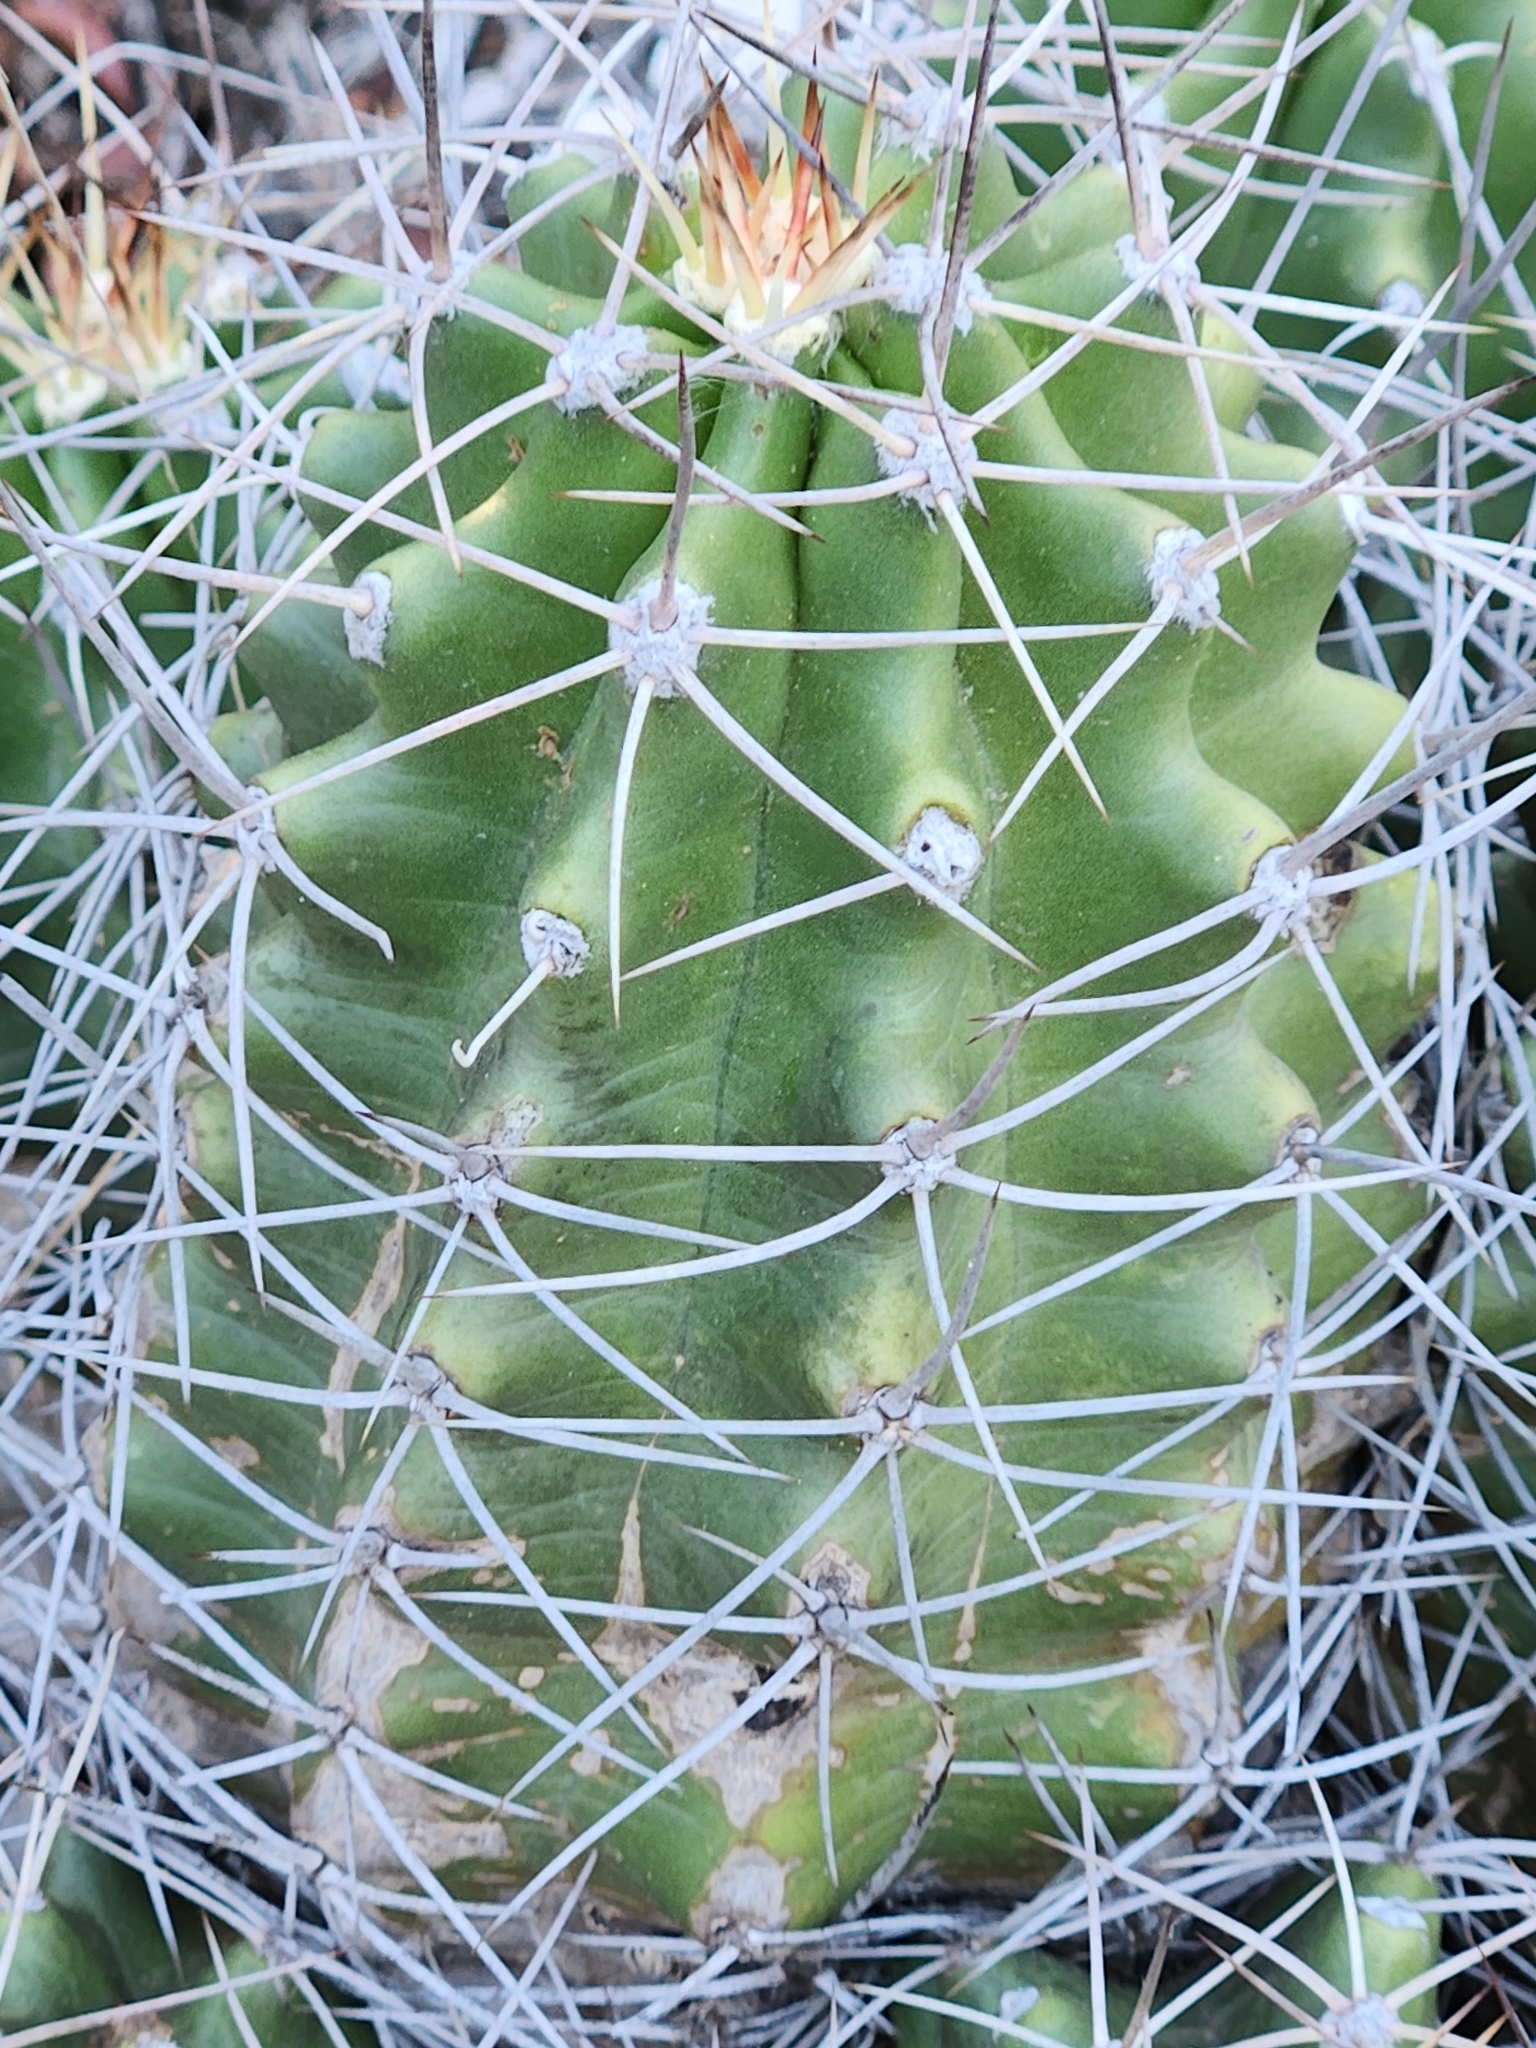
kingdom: Plantae
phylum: Tracheophyta
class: Magnoliopsida
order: Caryophyllales
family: Cactaceae
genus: Echinocereus
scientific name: Echinocereus coccineus
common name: Scarlet hedgehog cactus
